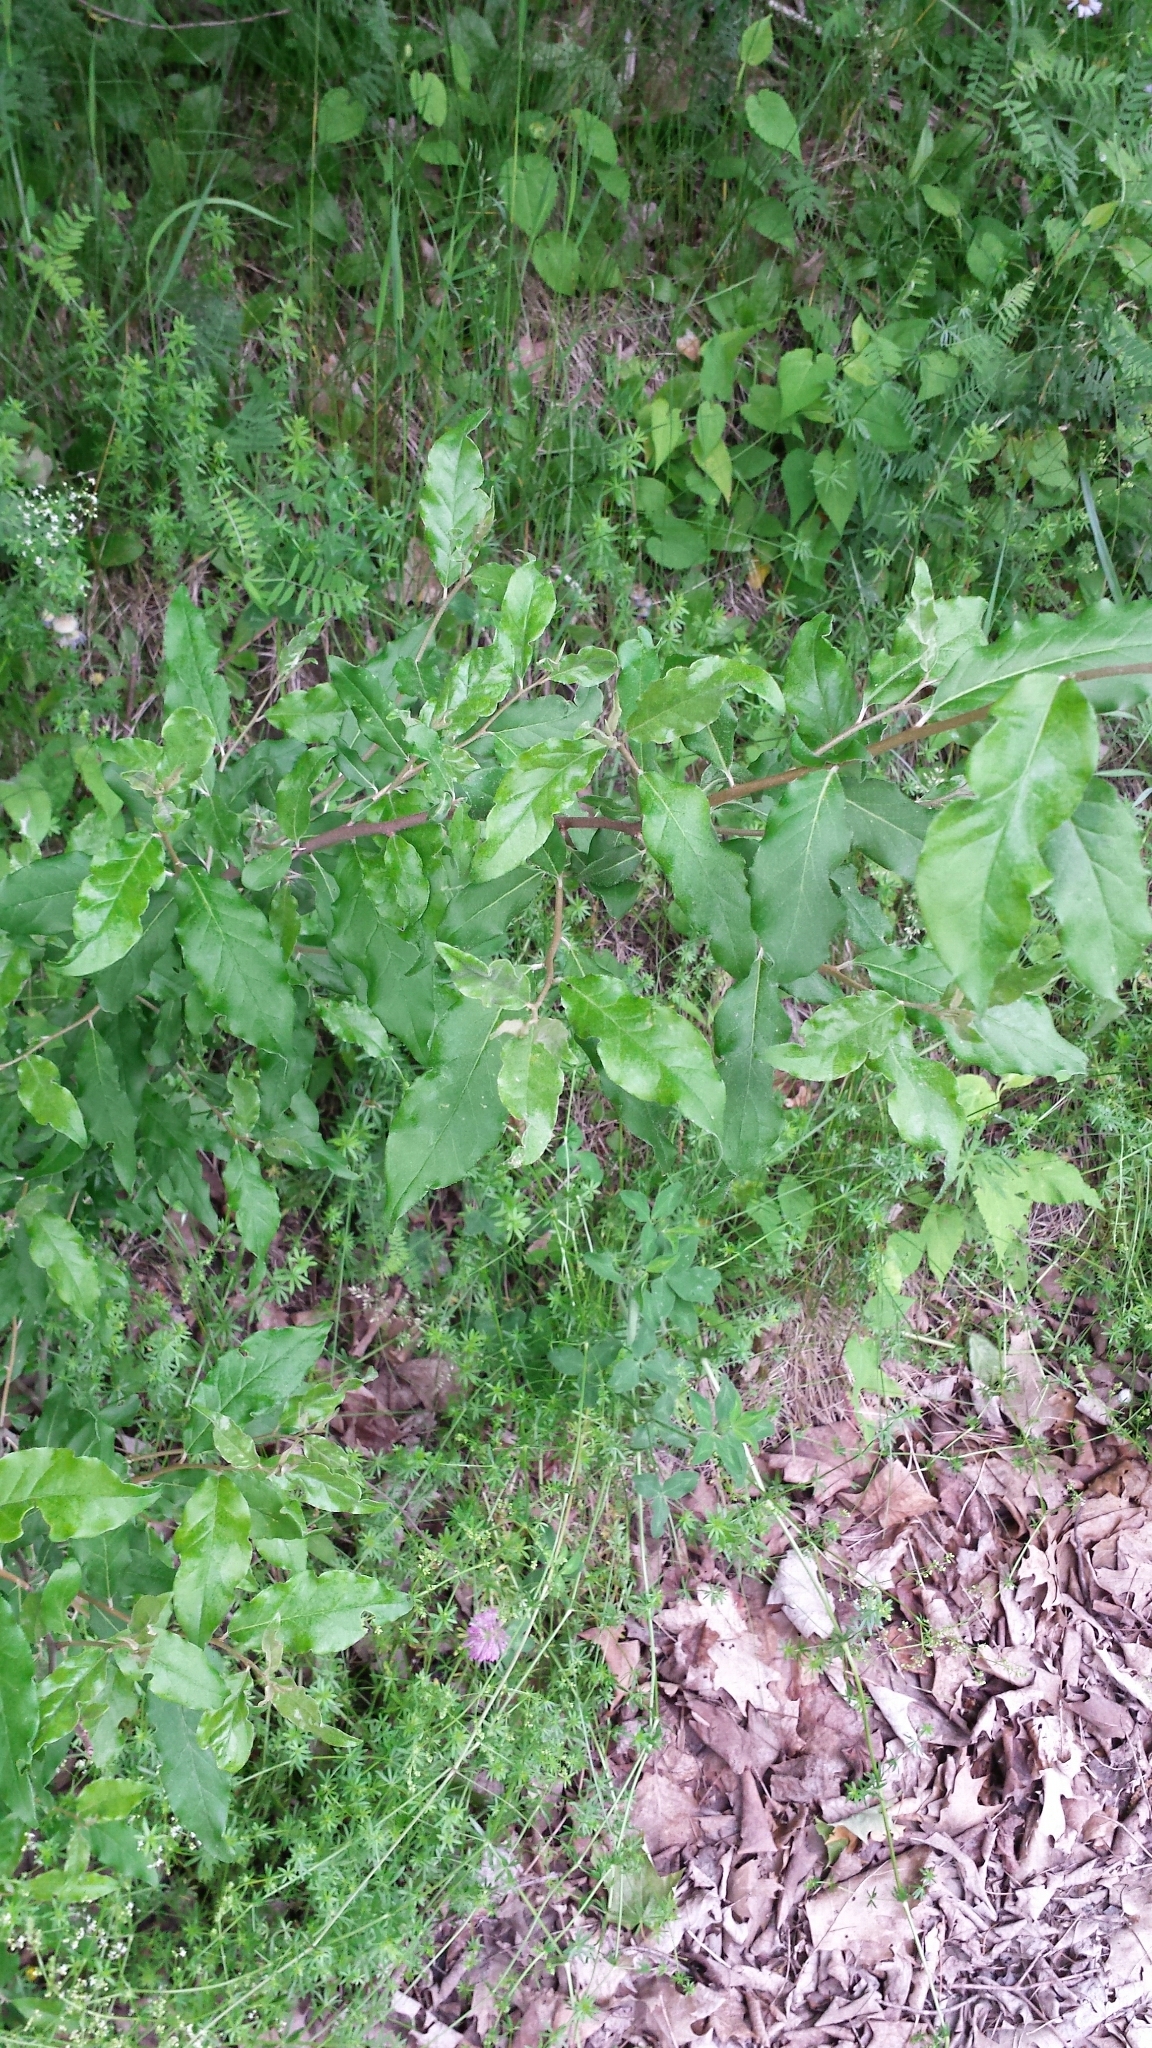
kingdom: Plantae
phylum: Tracheophyta
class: Magnoliopsida
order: Rosales
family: Elaeagnaceae
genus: Elaeagnus
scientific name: Elaeagnus umbellata
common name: Autumn olive
